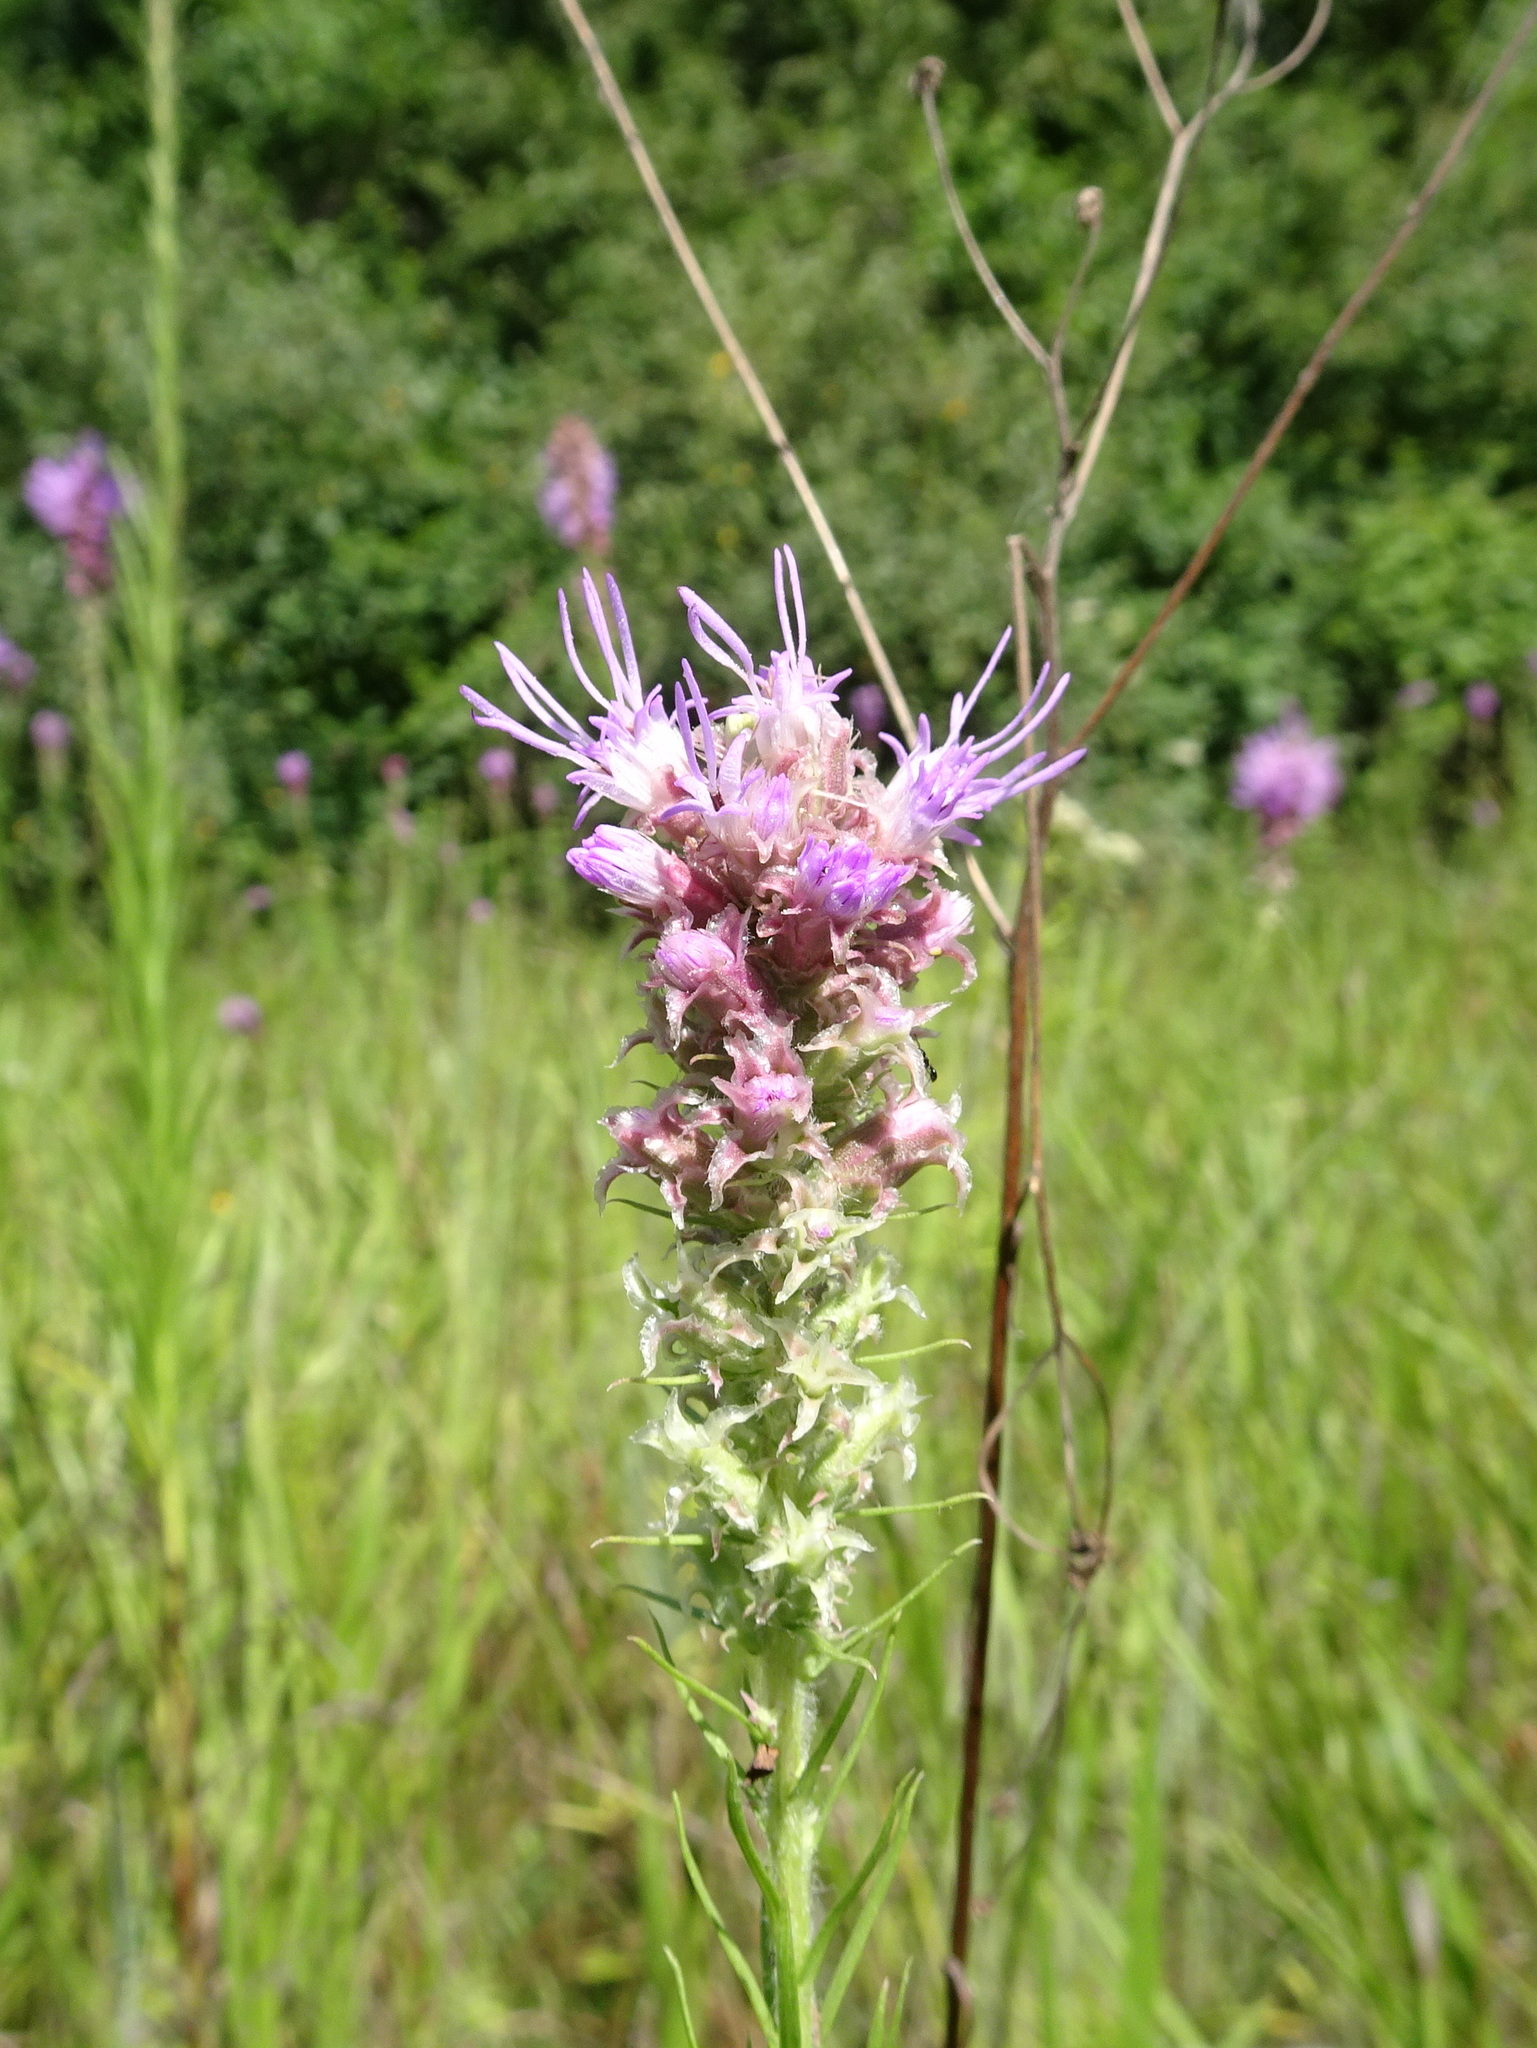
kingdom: Plantae
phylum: Tracheophyta
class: Magnoliopsida
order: Asterales
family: Asteraceae
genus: Liatris
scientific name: Liatris pycnostachya
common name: Cattail gayfeather
